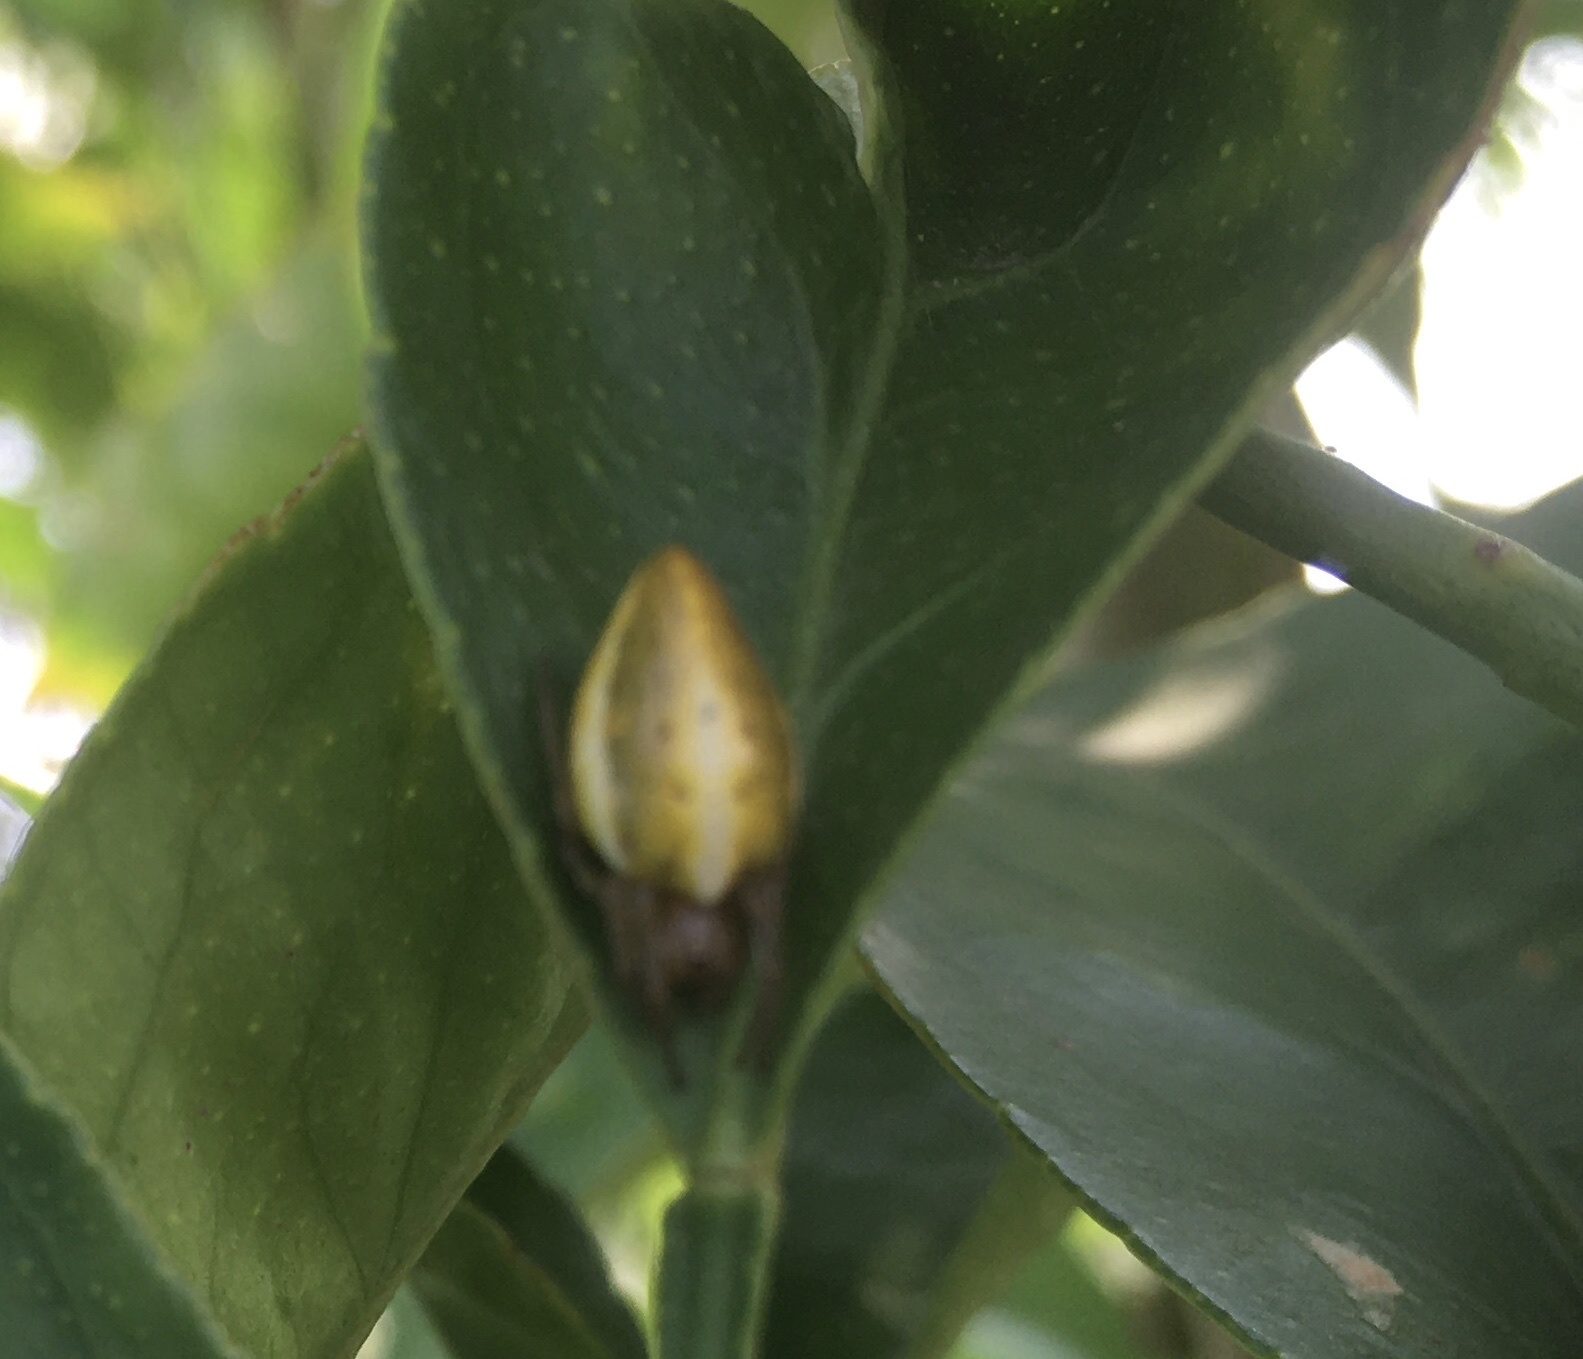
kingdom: Animalia
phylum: Arthropoda
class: Arachnida
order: Araneae
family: Araneidae
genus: Alpaida
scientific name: Alpaida costai
